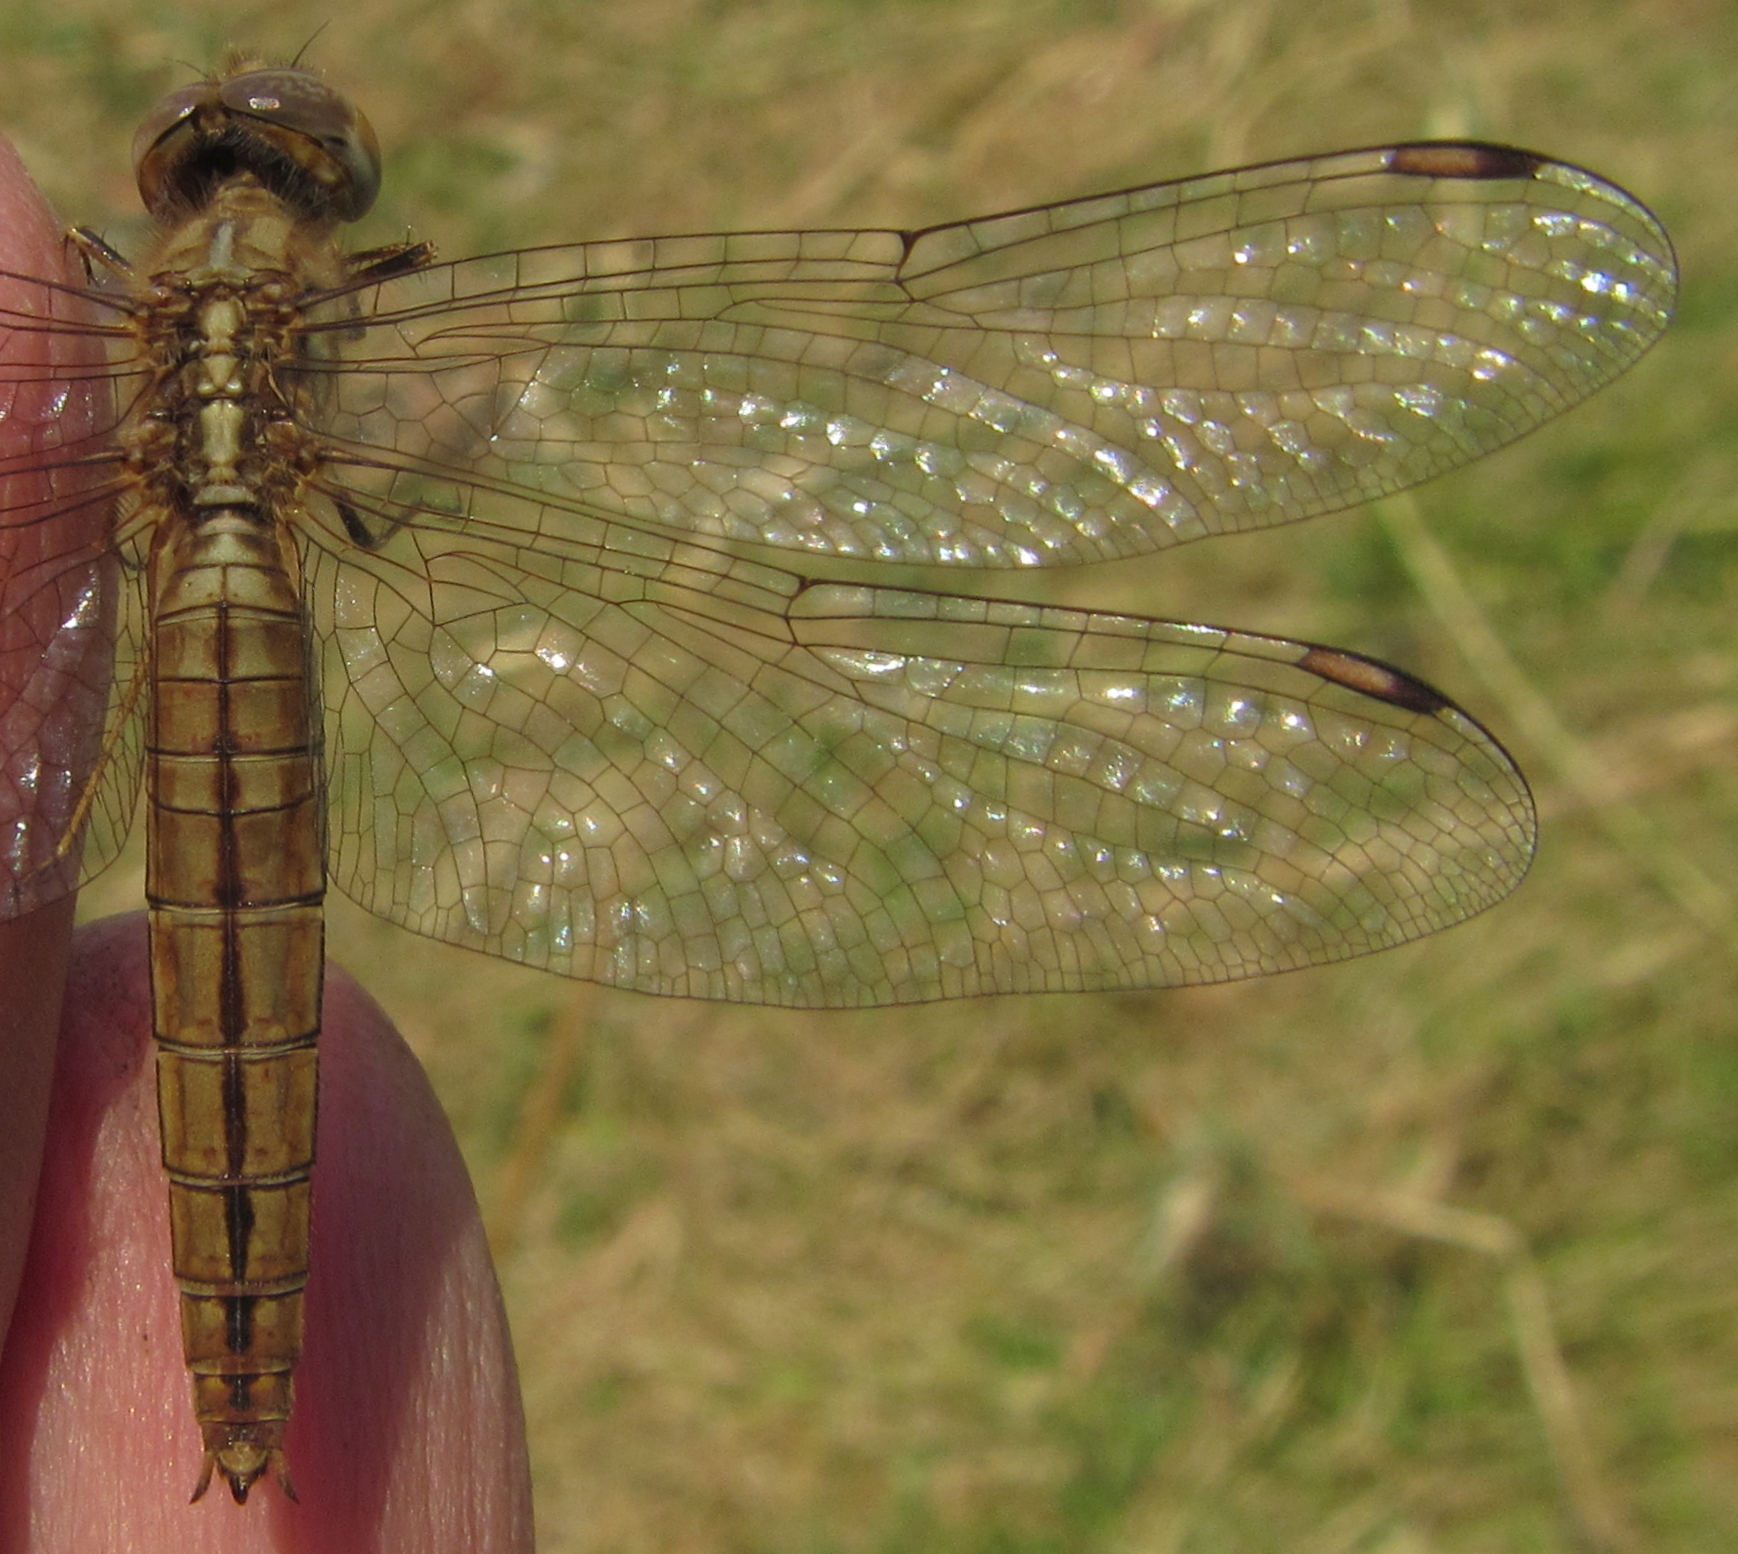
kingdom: Animalia
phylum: Arthropoda
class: Insecta
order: Odonata
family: Libellulidae
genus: Brachythemis
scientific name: Brachythemis lacustris
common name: Red groundling
